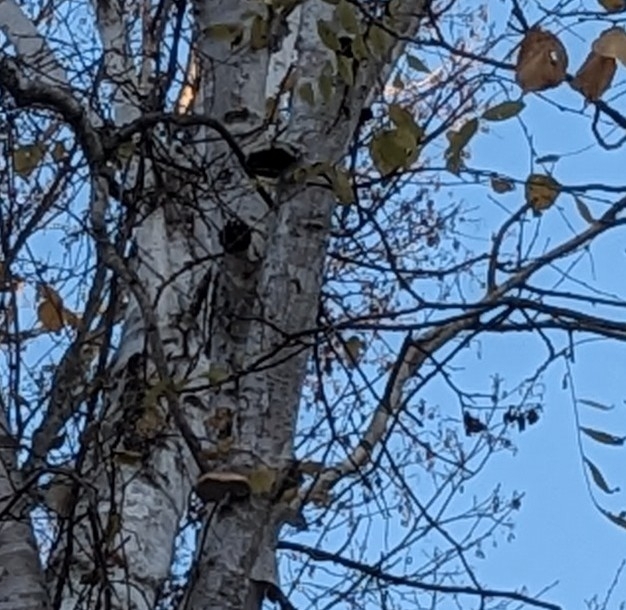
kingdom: Fungi
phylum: Basidiomycota
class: Agaricomycetes
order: Polyporales
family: Fomitopsidaceae
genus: Fomitopsis
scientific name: Fomitopsis betulina
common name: Birch polypore
